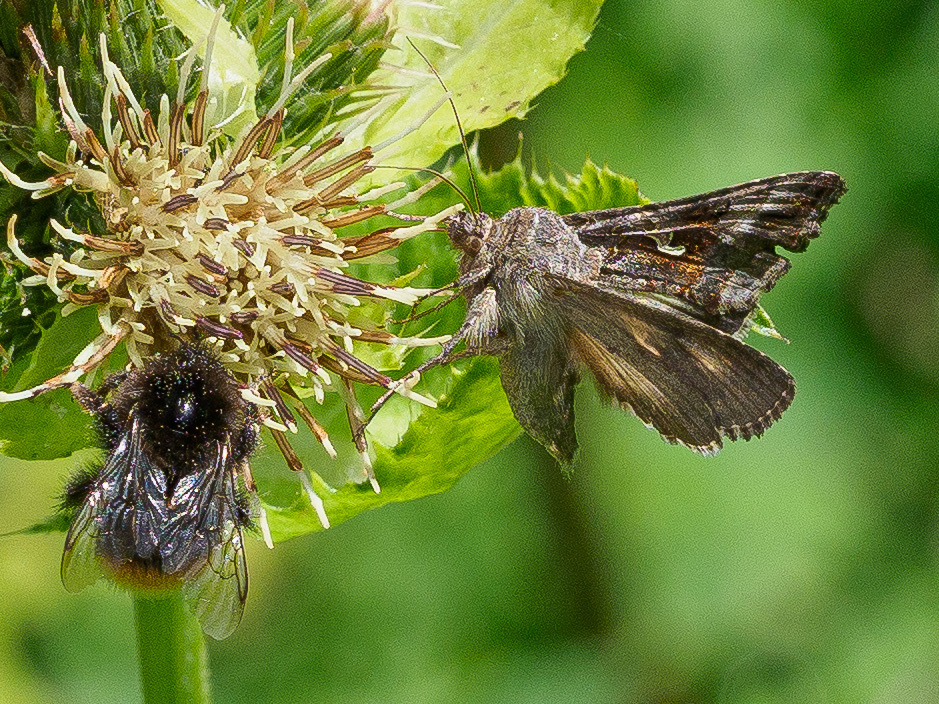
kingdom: Animalia
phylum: Arthropoda
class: Insecta
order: Lepidoptera
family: Noctuidae
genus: Autographa
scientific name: Autographa gamma
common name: Silver y
